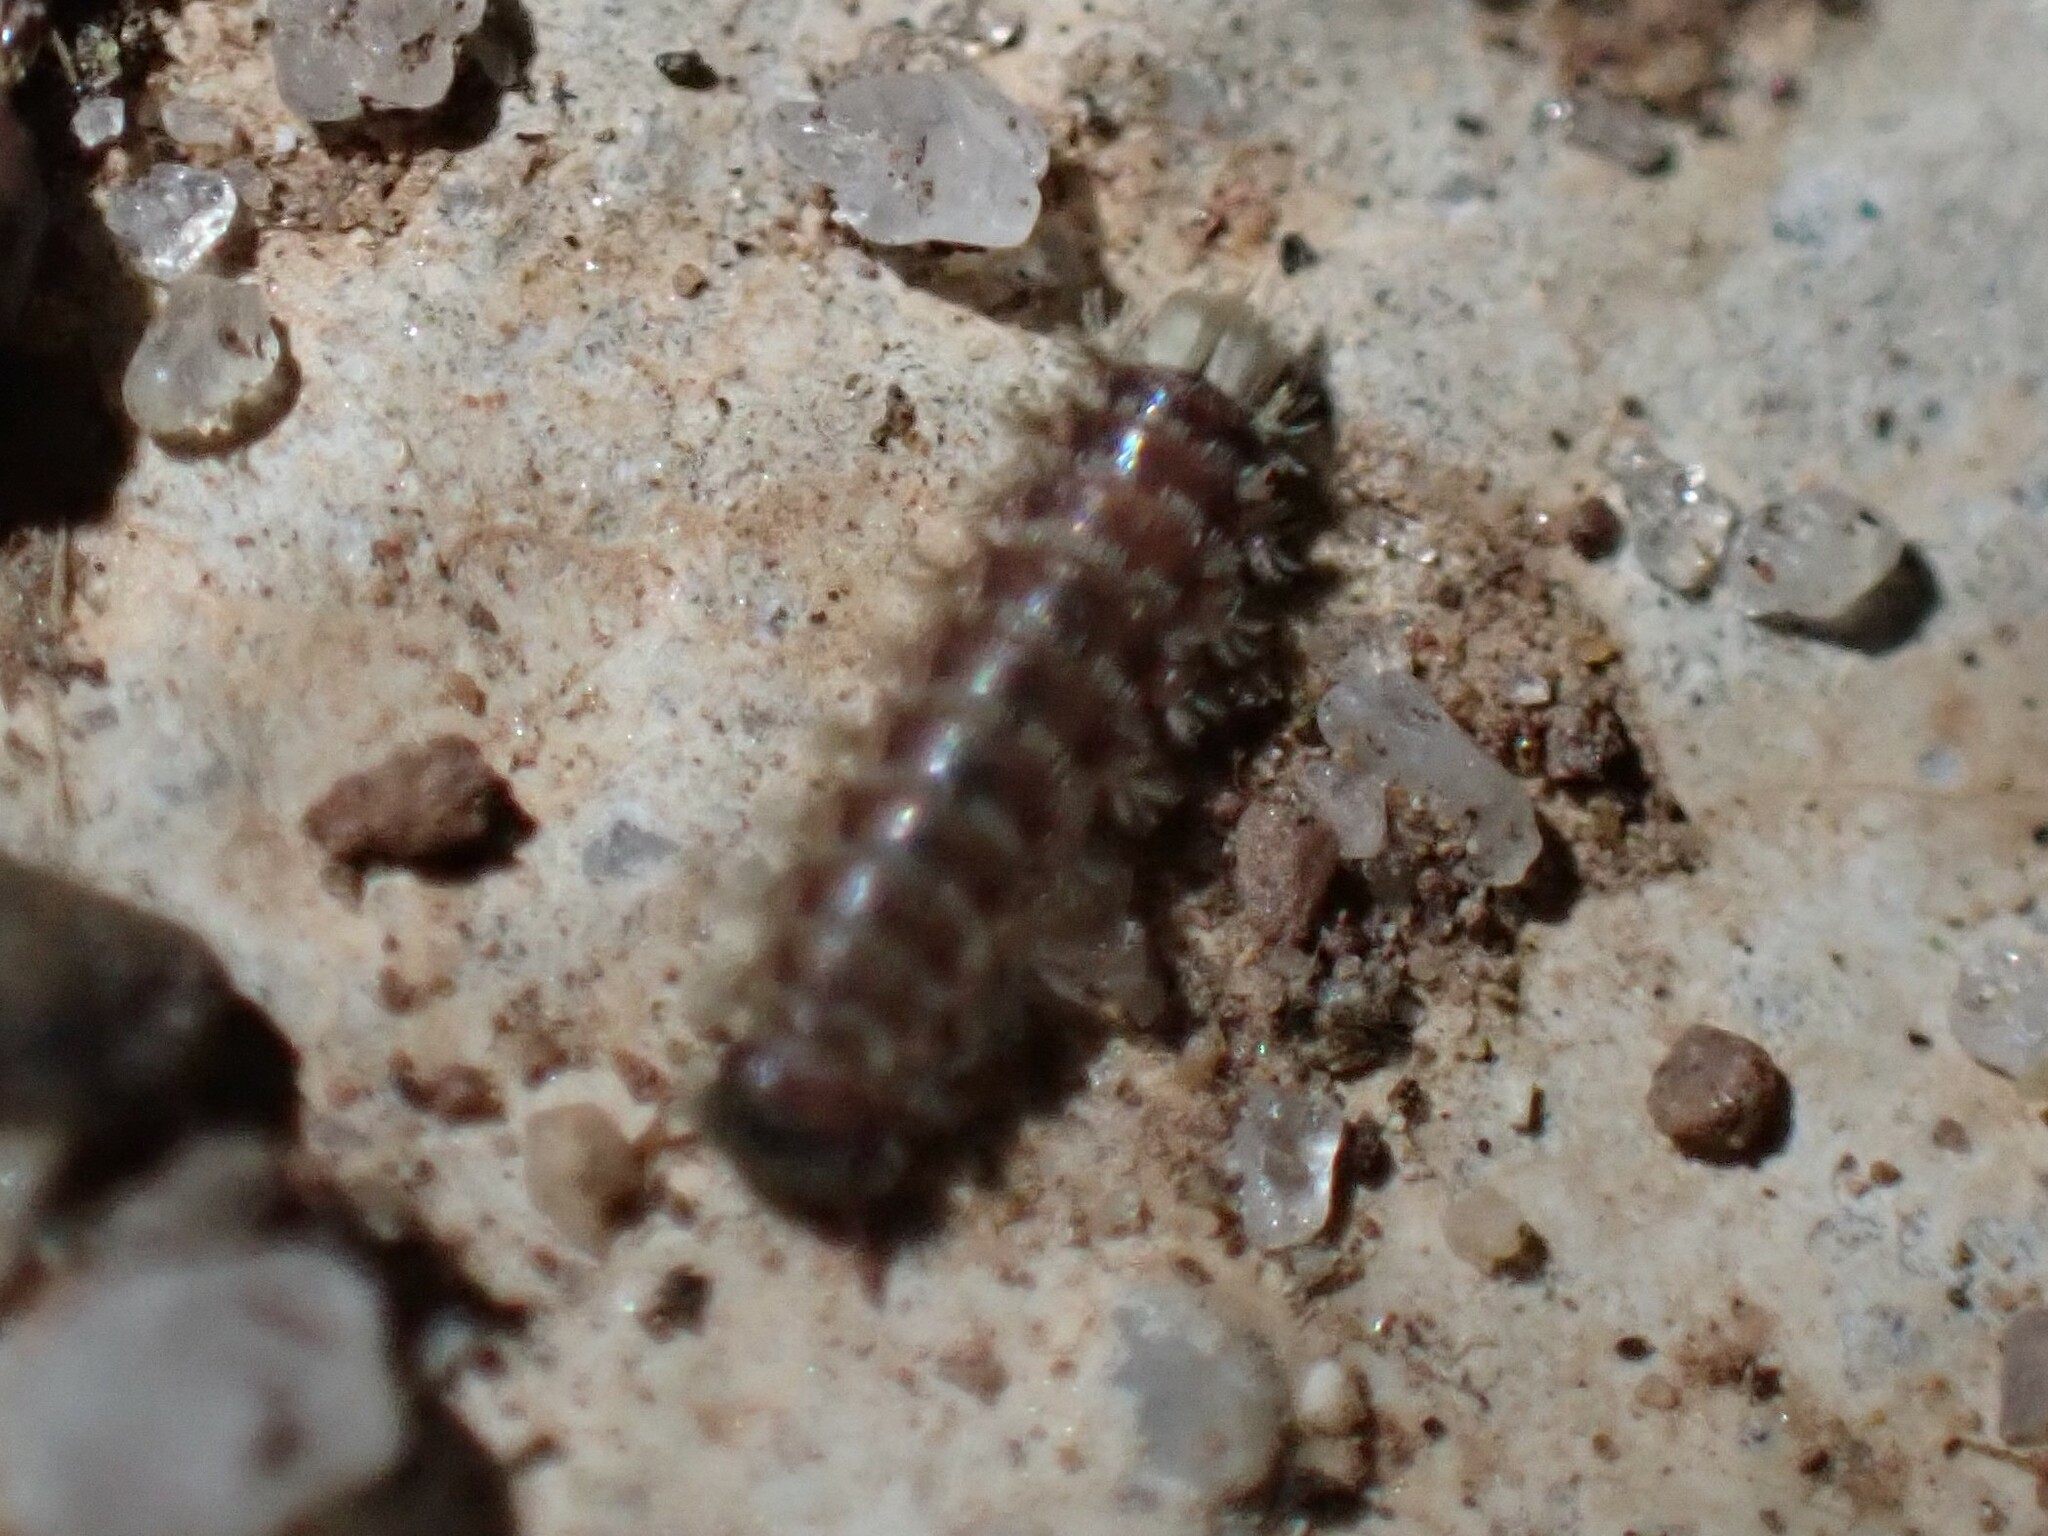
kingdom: Animalia
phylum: Arthropoda
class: Diplopoda
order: Polyxenida
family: Polyxenidae
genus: Polyxenus
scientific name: Polyxenus lagurus
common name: Bristly millipede
